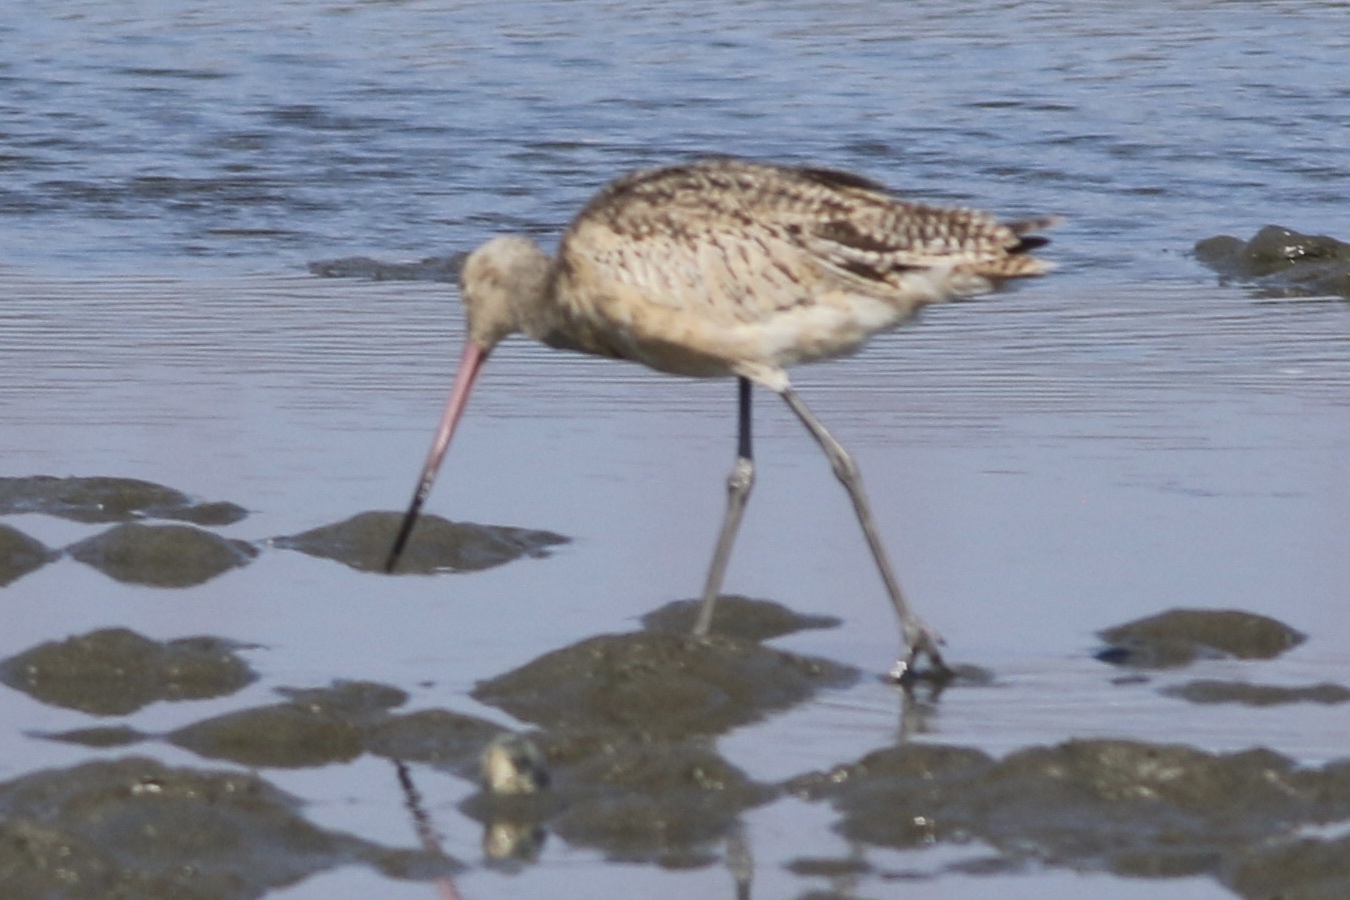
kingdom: Animalia
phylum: Chordata
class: Aves
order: Charadriiformes
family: Scolopacidae
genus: Limosa
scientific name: Limosa fedoa
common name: Marbled godwit
